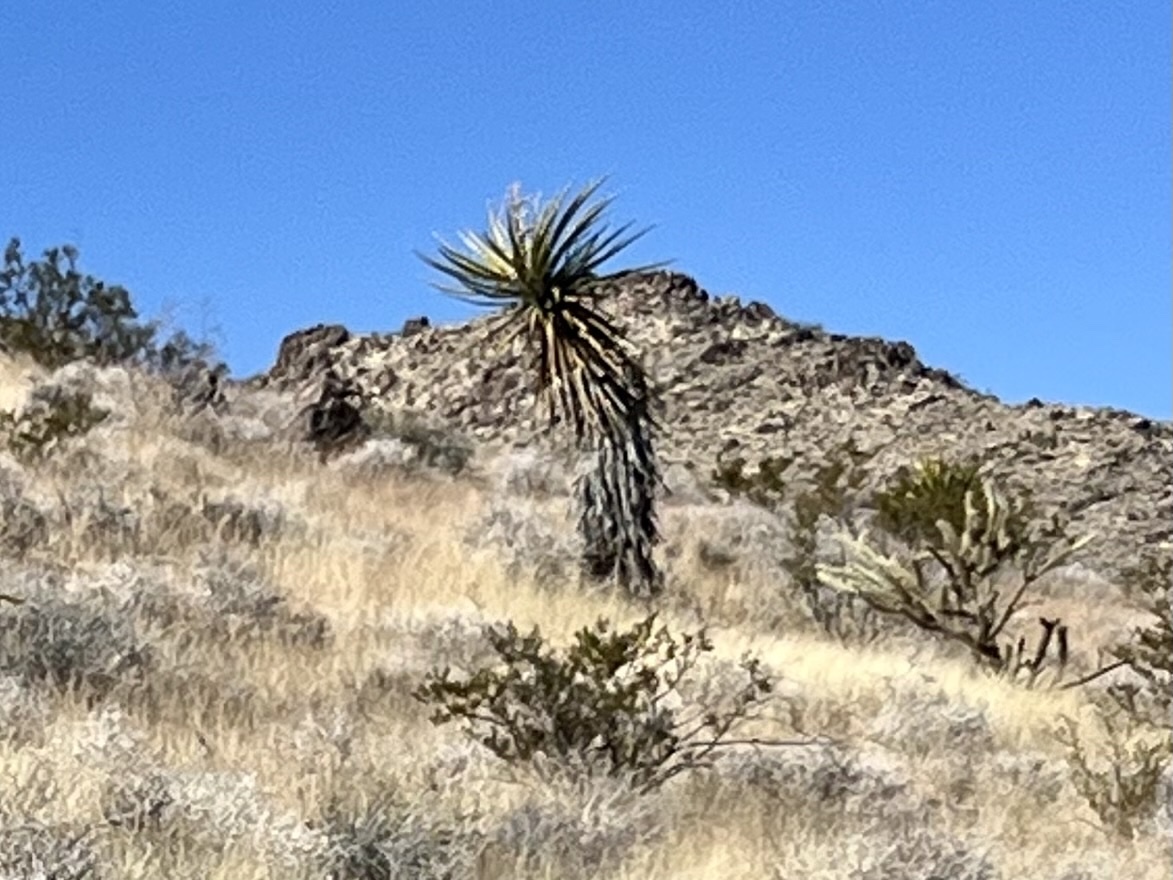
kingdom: Plantae
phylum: Tracheophyta
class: Liliopsida
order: Asparagales
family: Asparagaceae
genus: Yucca
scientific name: Yucca schidigera
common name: Mojave yucca
